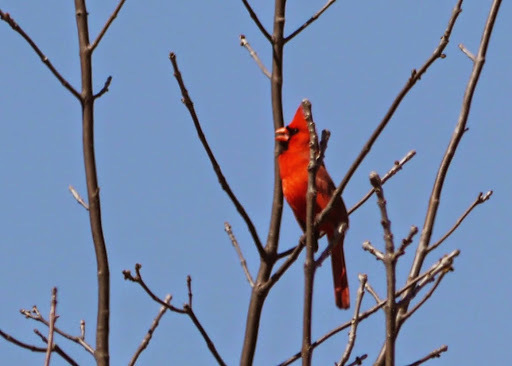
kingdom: Animalia
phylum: Chordata
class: Aves
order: Passeriformes
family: Cardinalidae
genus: Cardinalis
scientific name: Cardinalis cardinalis
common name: Northern cardinal
